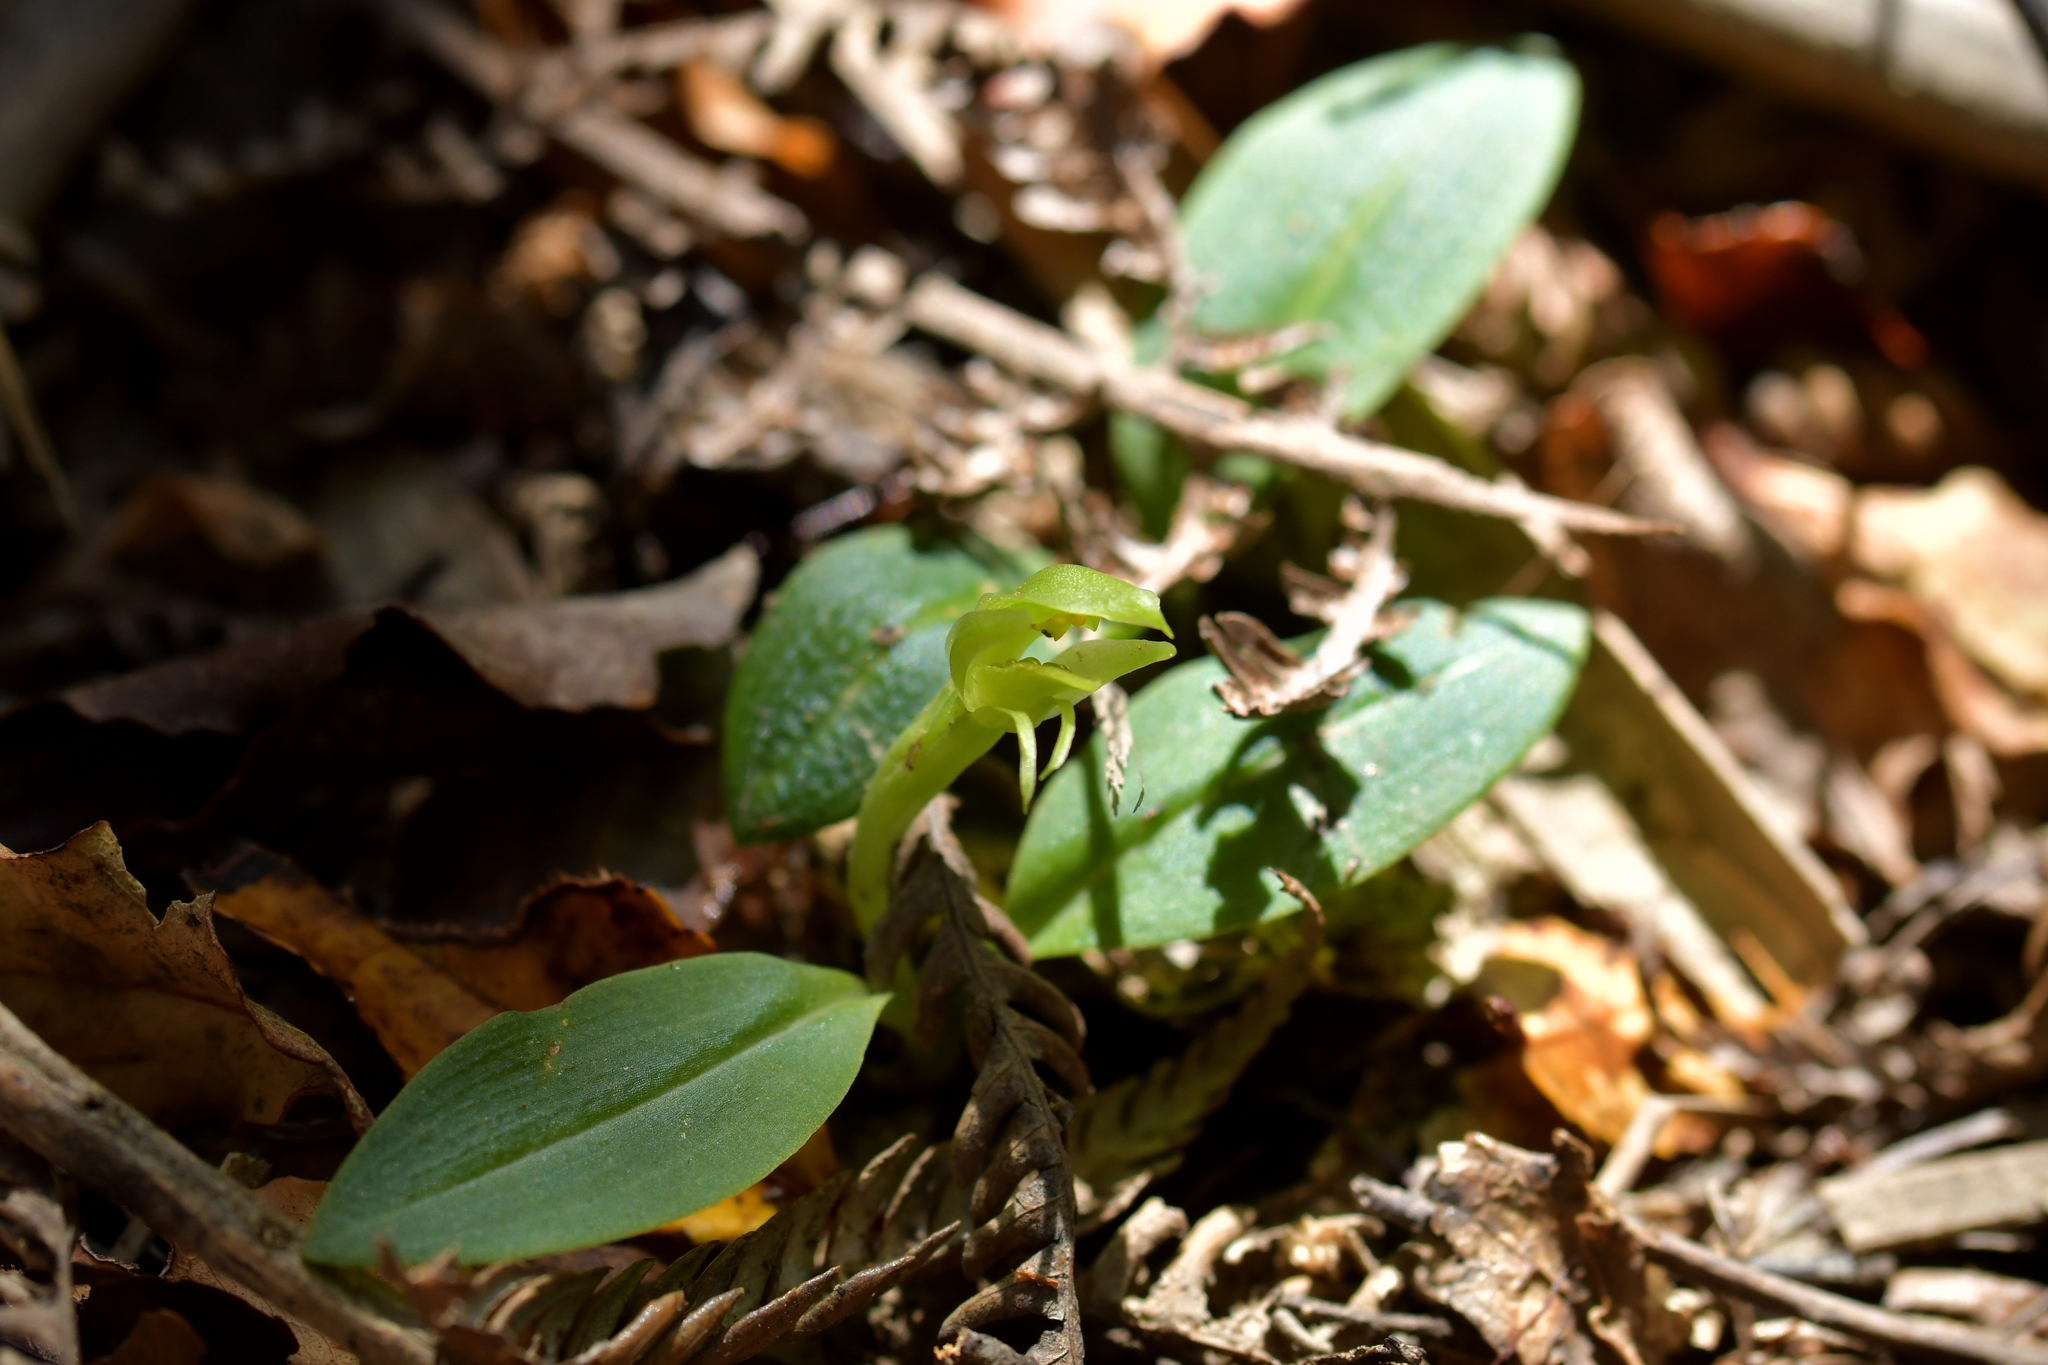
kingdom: Plantae
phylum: Tracheophyta
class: Liliopsida
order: Asparagales
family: Orchidaceae
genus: Chiloglottis
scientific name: Chiloglottis cornuta
